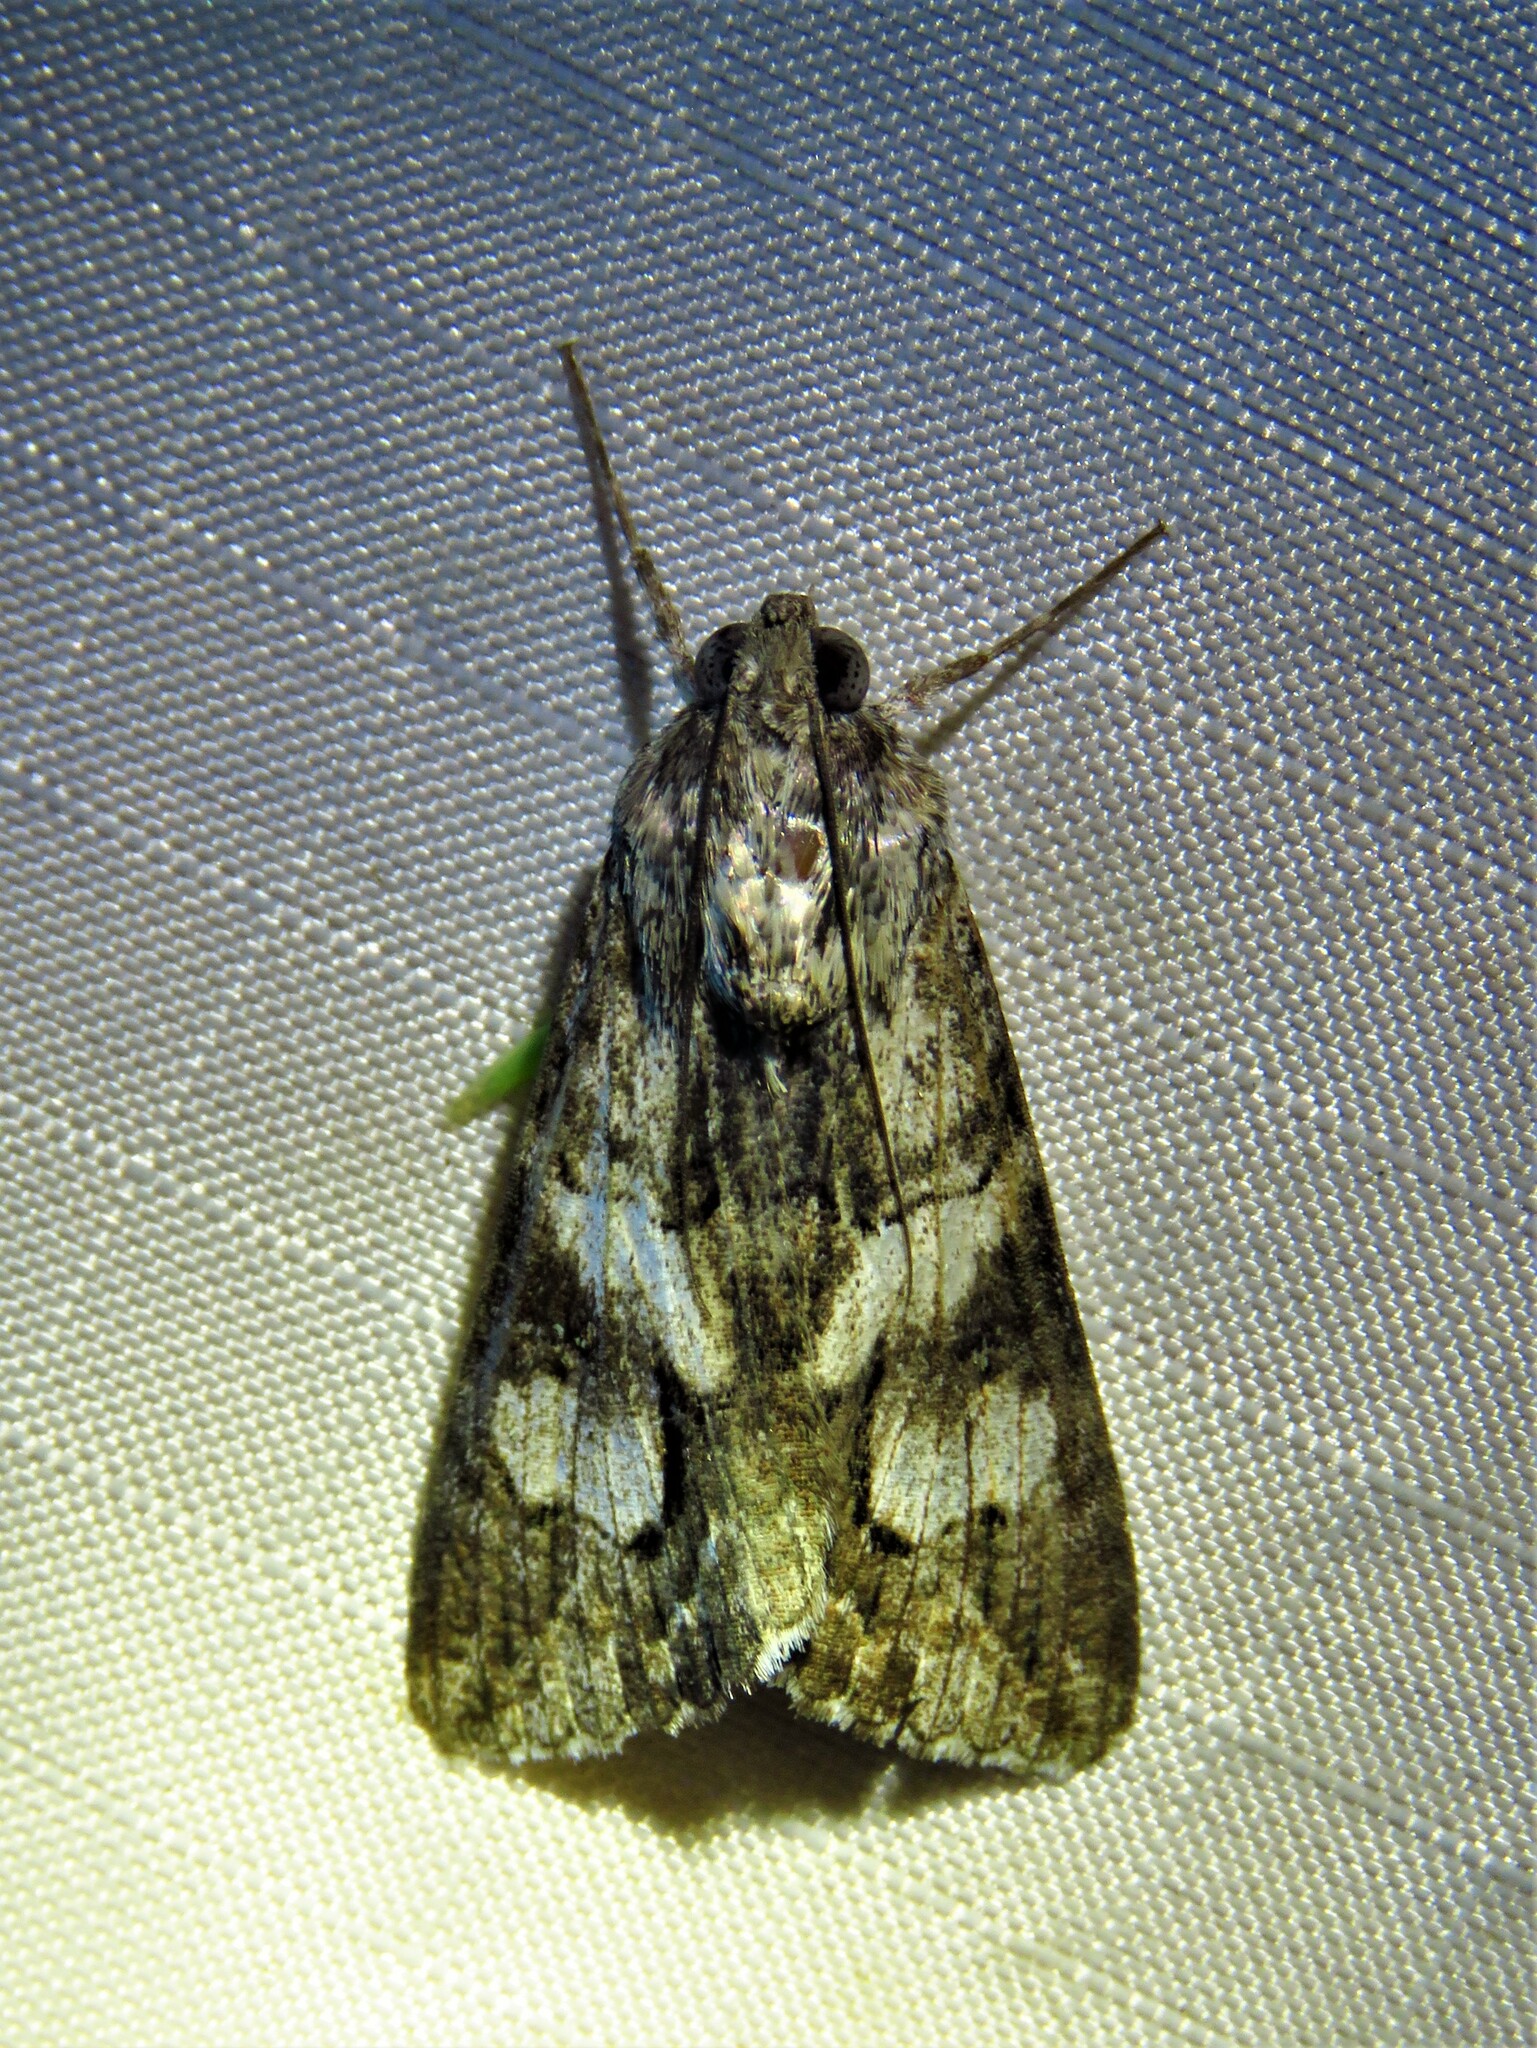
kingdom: Animalia
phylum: Arthropoda
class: Insecta
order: Lepidoptera
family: Erebidae
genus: Melipotis
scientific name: Melipotis jucunda
